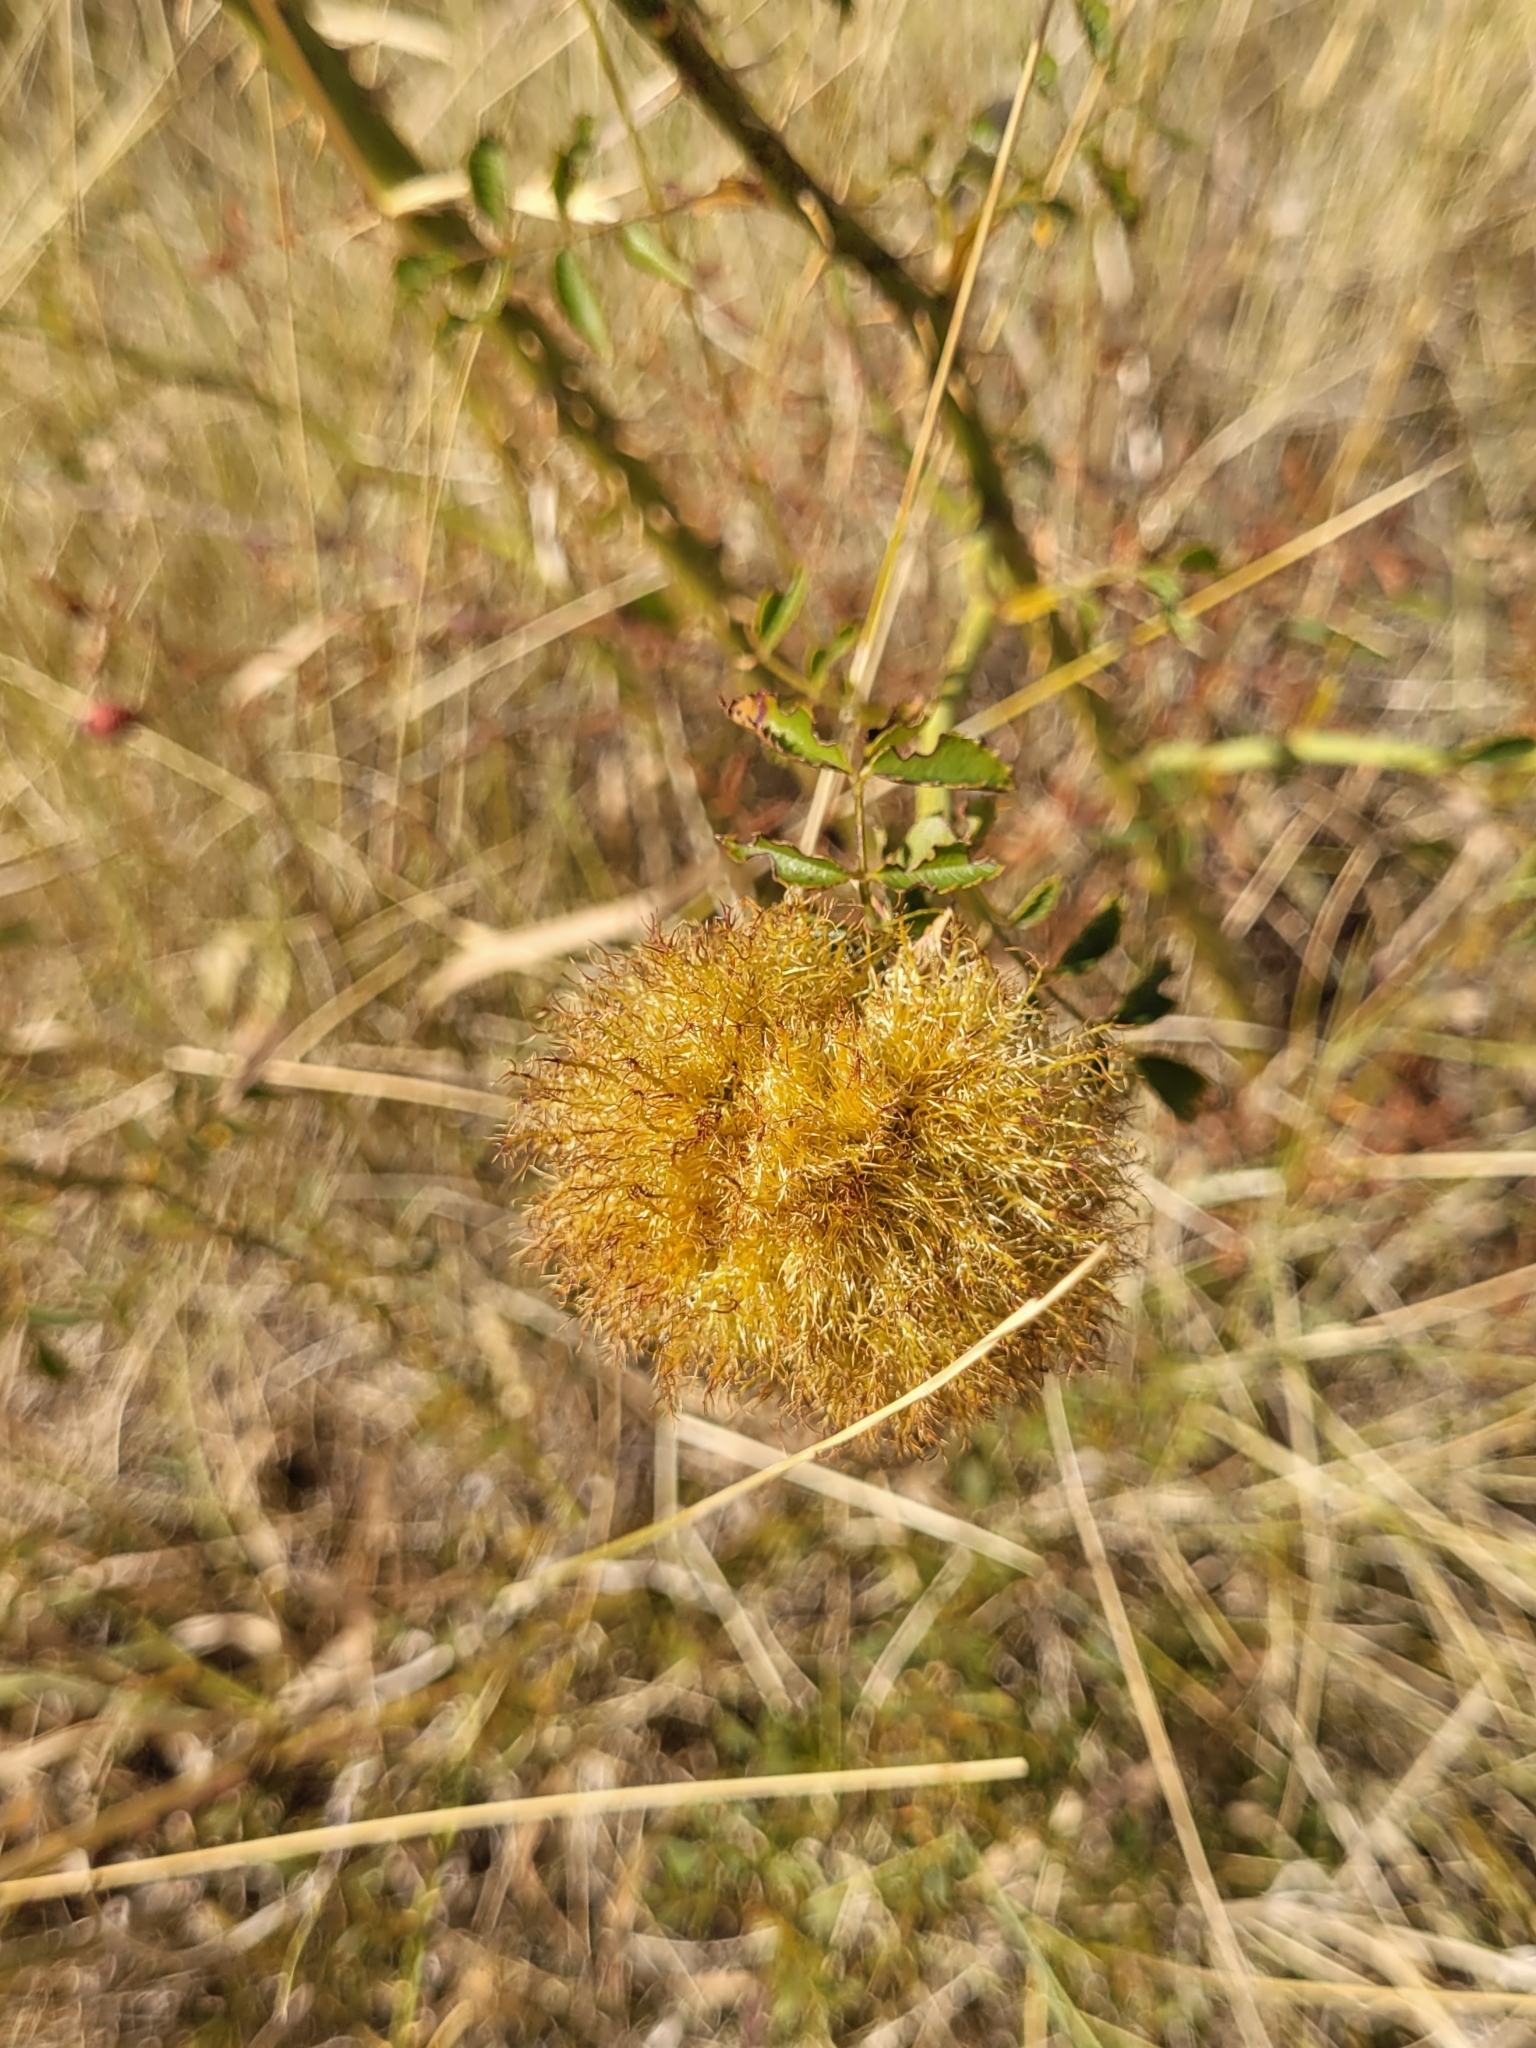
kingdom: Animalia
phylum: Arthropoda
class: Insecta
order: Hymenoptera
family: Cynipidae
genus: Diplolepis
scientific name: Diplolepis rosae
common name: Bedeguar gall
